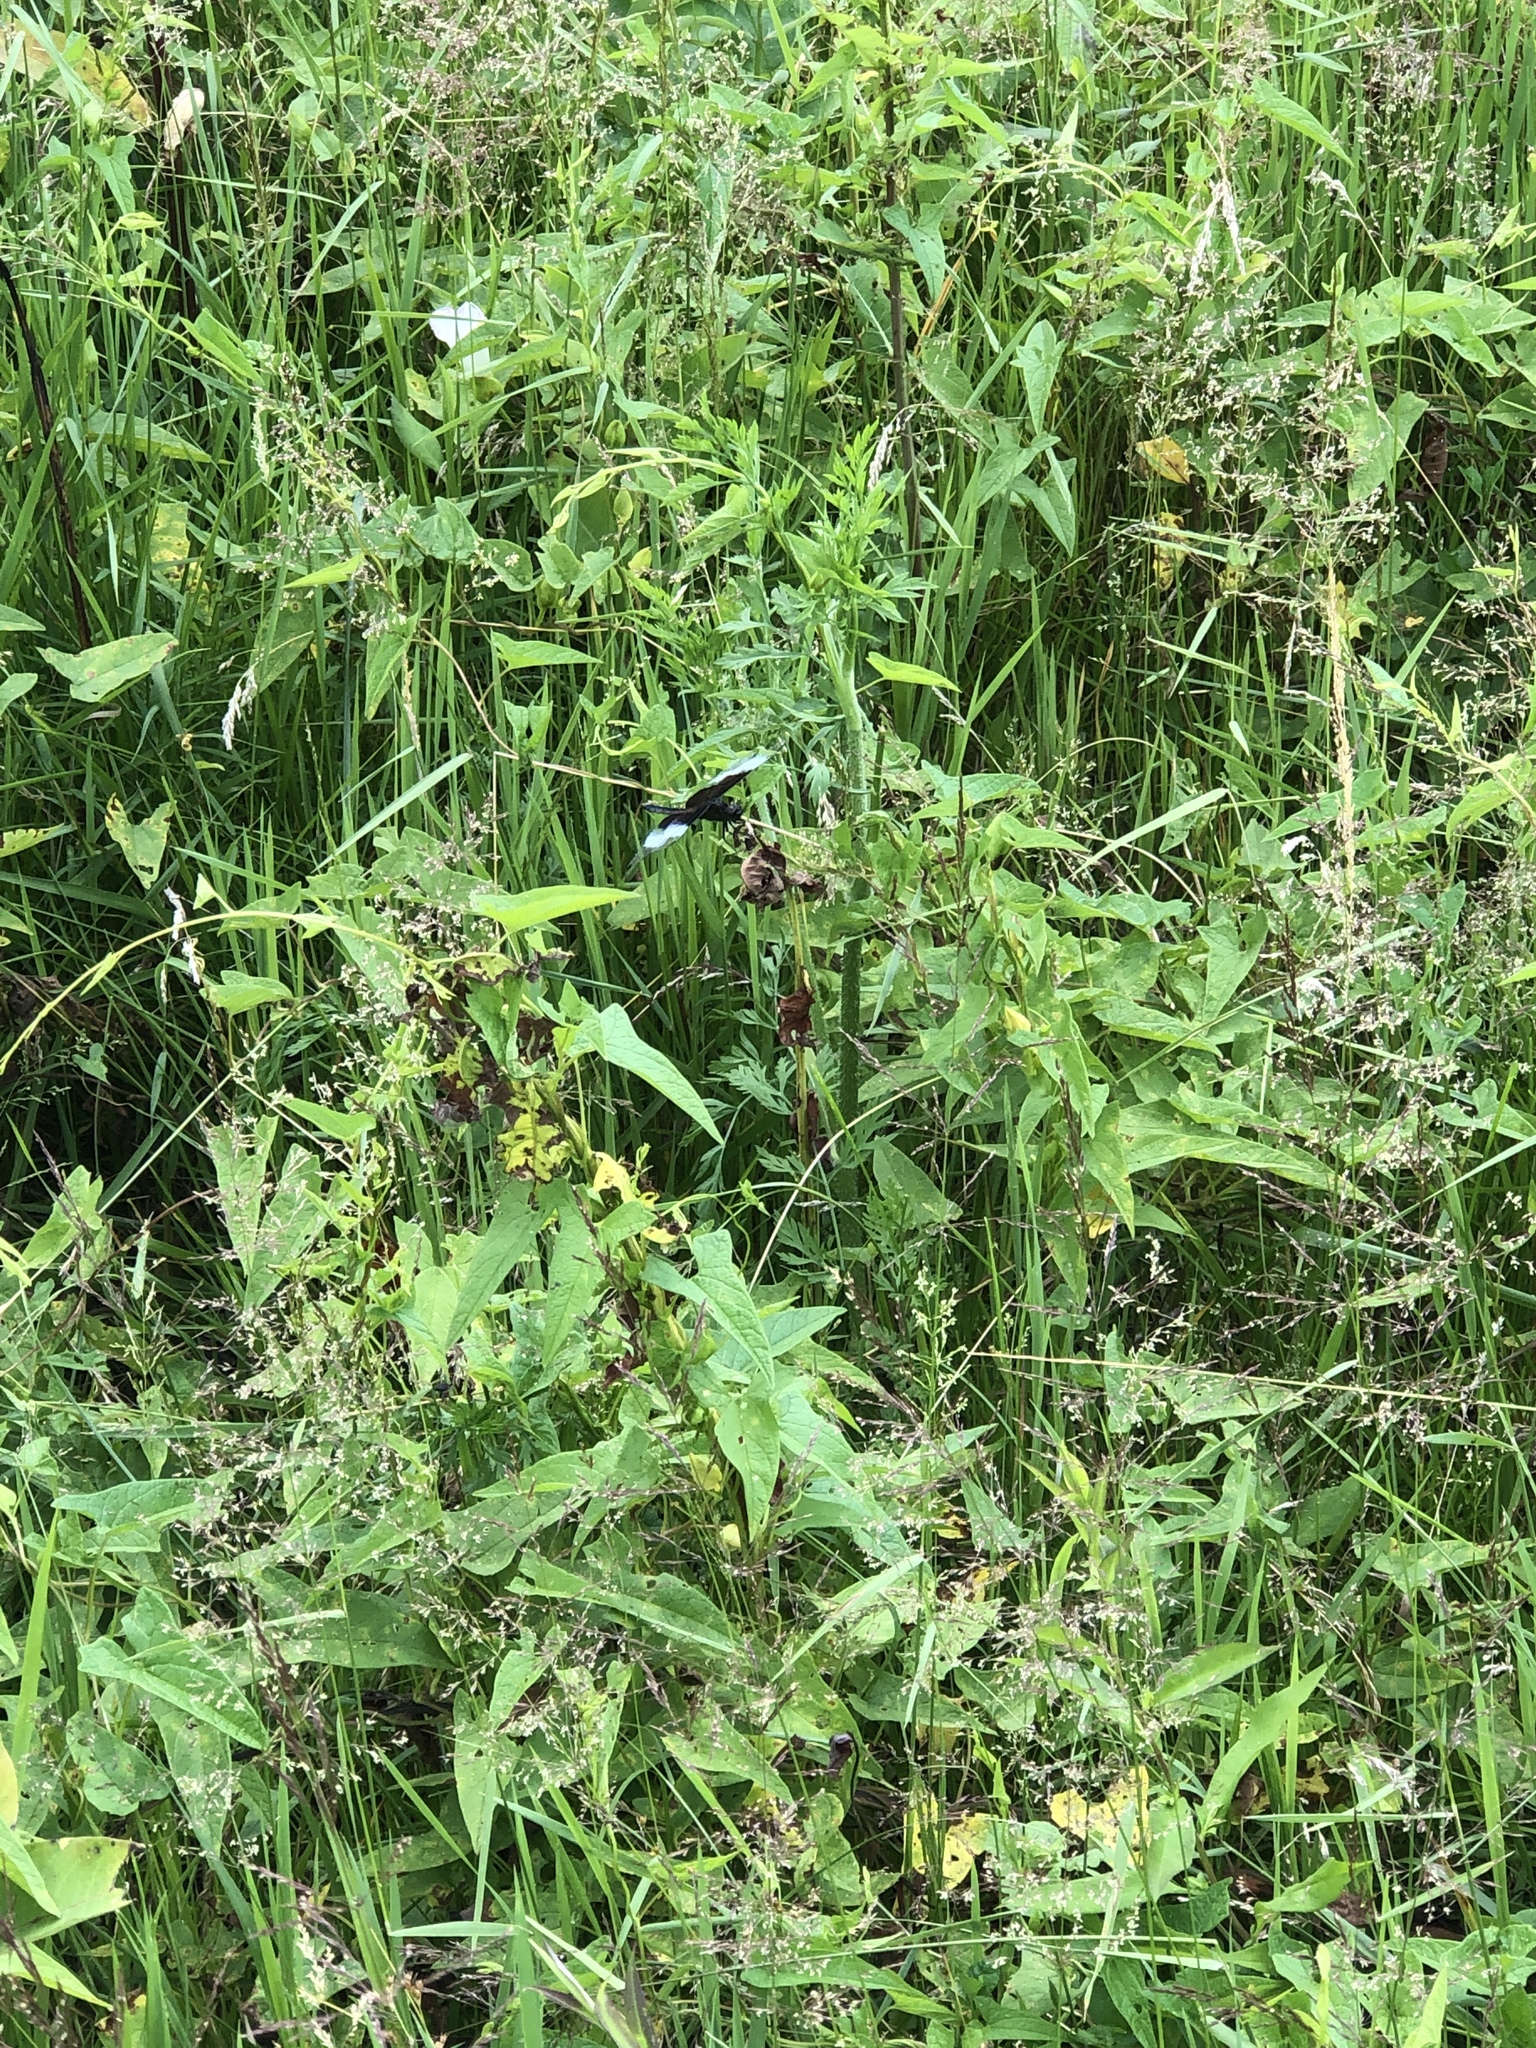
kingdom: Animalia
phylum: Arthropoda
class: Insecta
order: Odonata
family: Libellulidae
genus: Libellula
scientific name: Libellula luctuosa
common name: Widow skimmer
